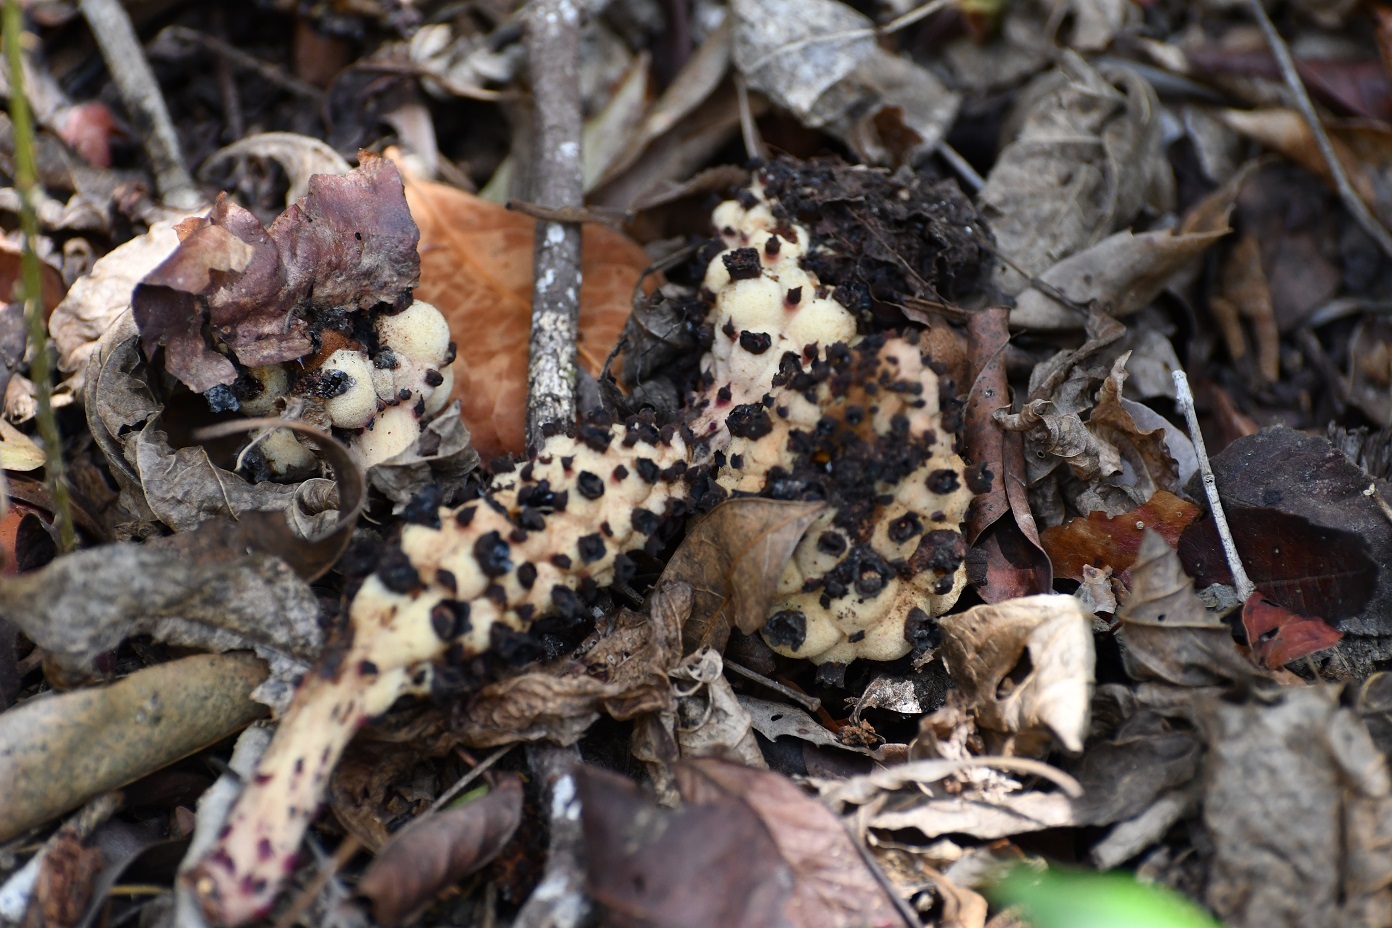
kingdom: Plantae
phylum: Tracheophyta
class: Magnoliopsida
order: Malvales
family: Cytinaceae
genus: Bdallophyton
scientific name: Bdallophyton oxylepis
